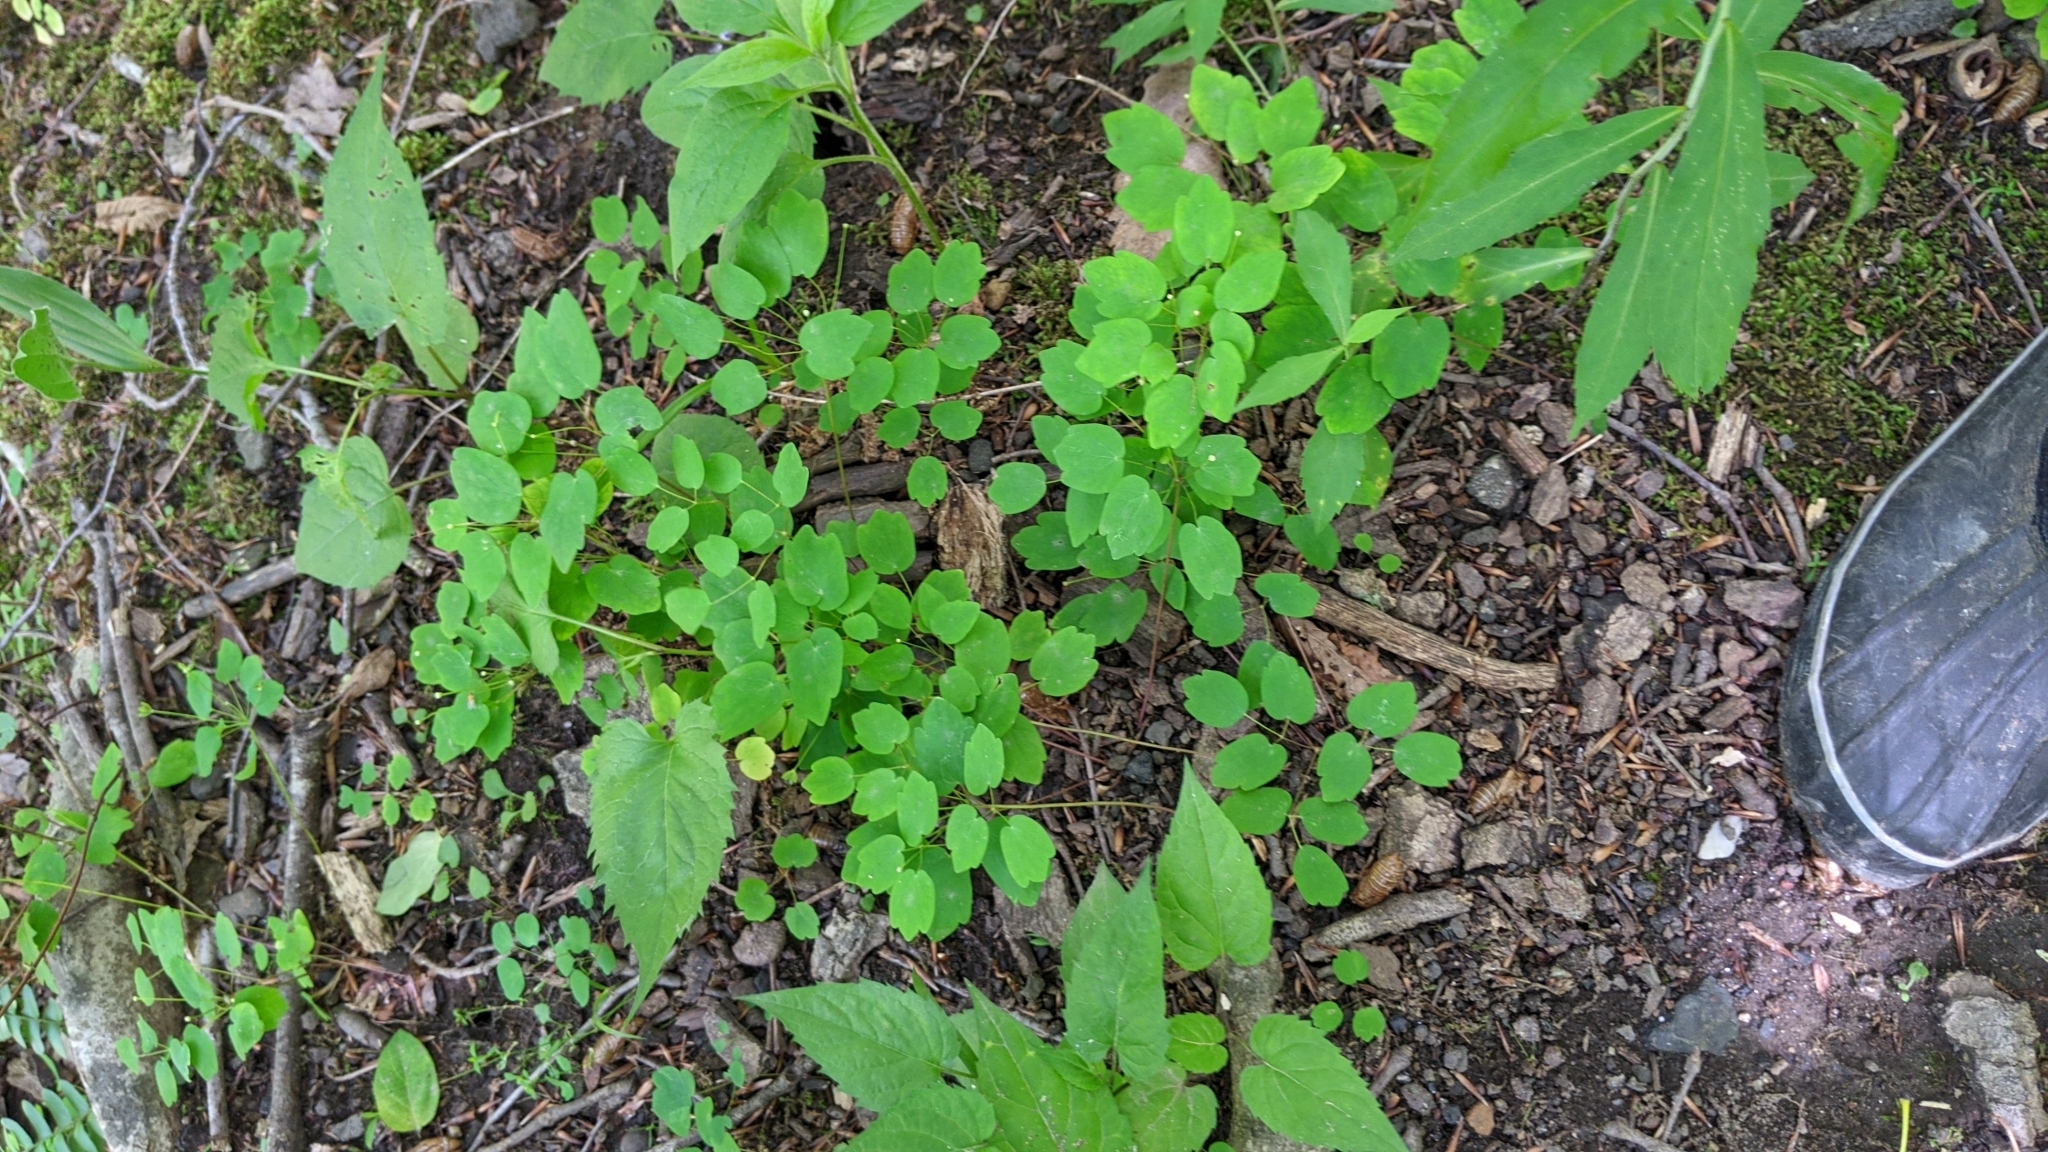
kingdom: Plantae
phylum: Tracheophyta
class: Magnoliopsida
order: Ranunculales
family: Ranunculaceae
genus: Thalictrum
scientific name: Thalictrum thalictroides
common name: Rue-anemone
